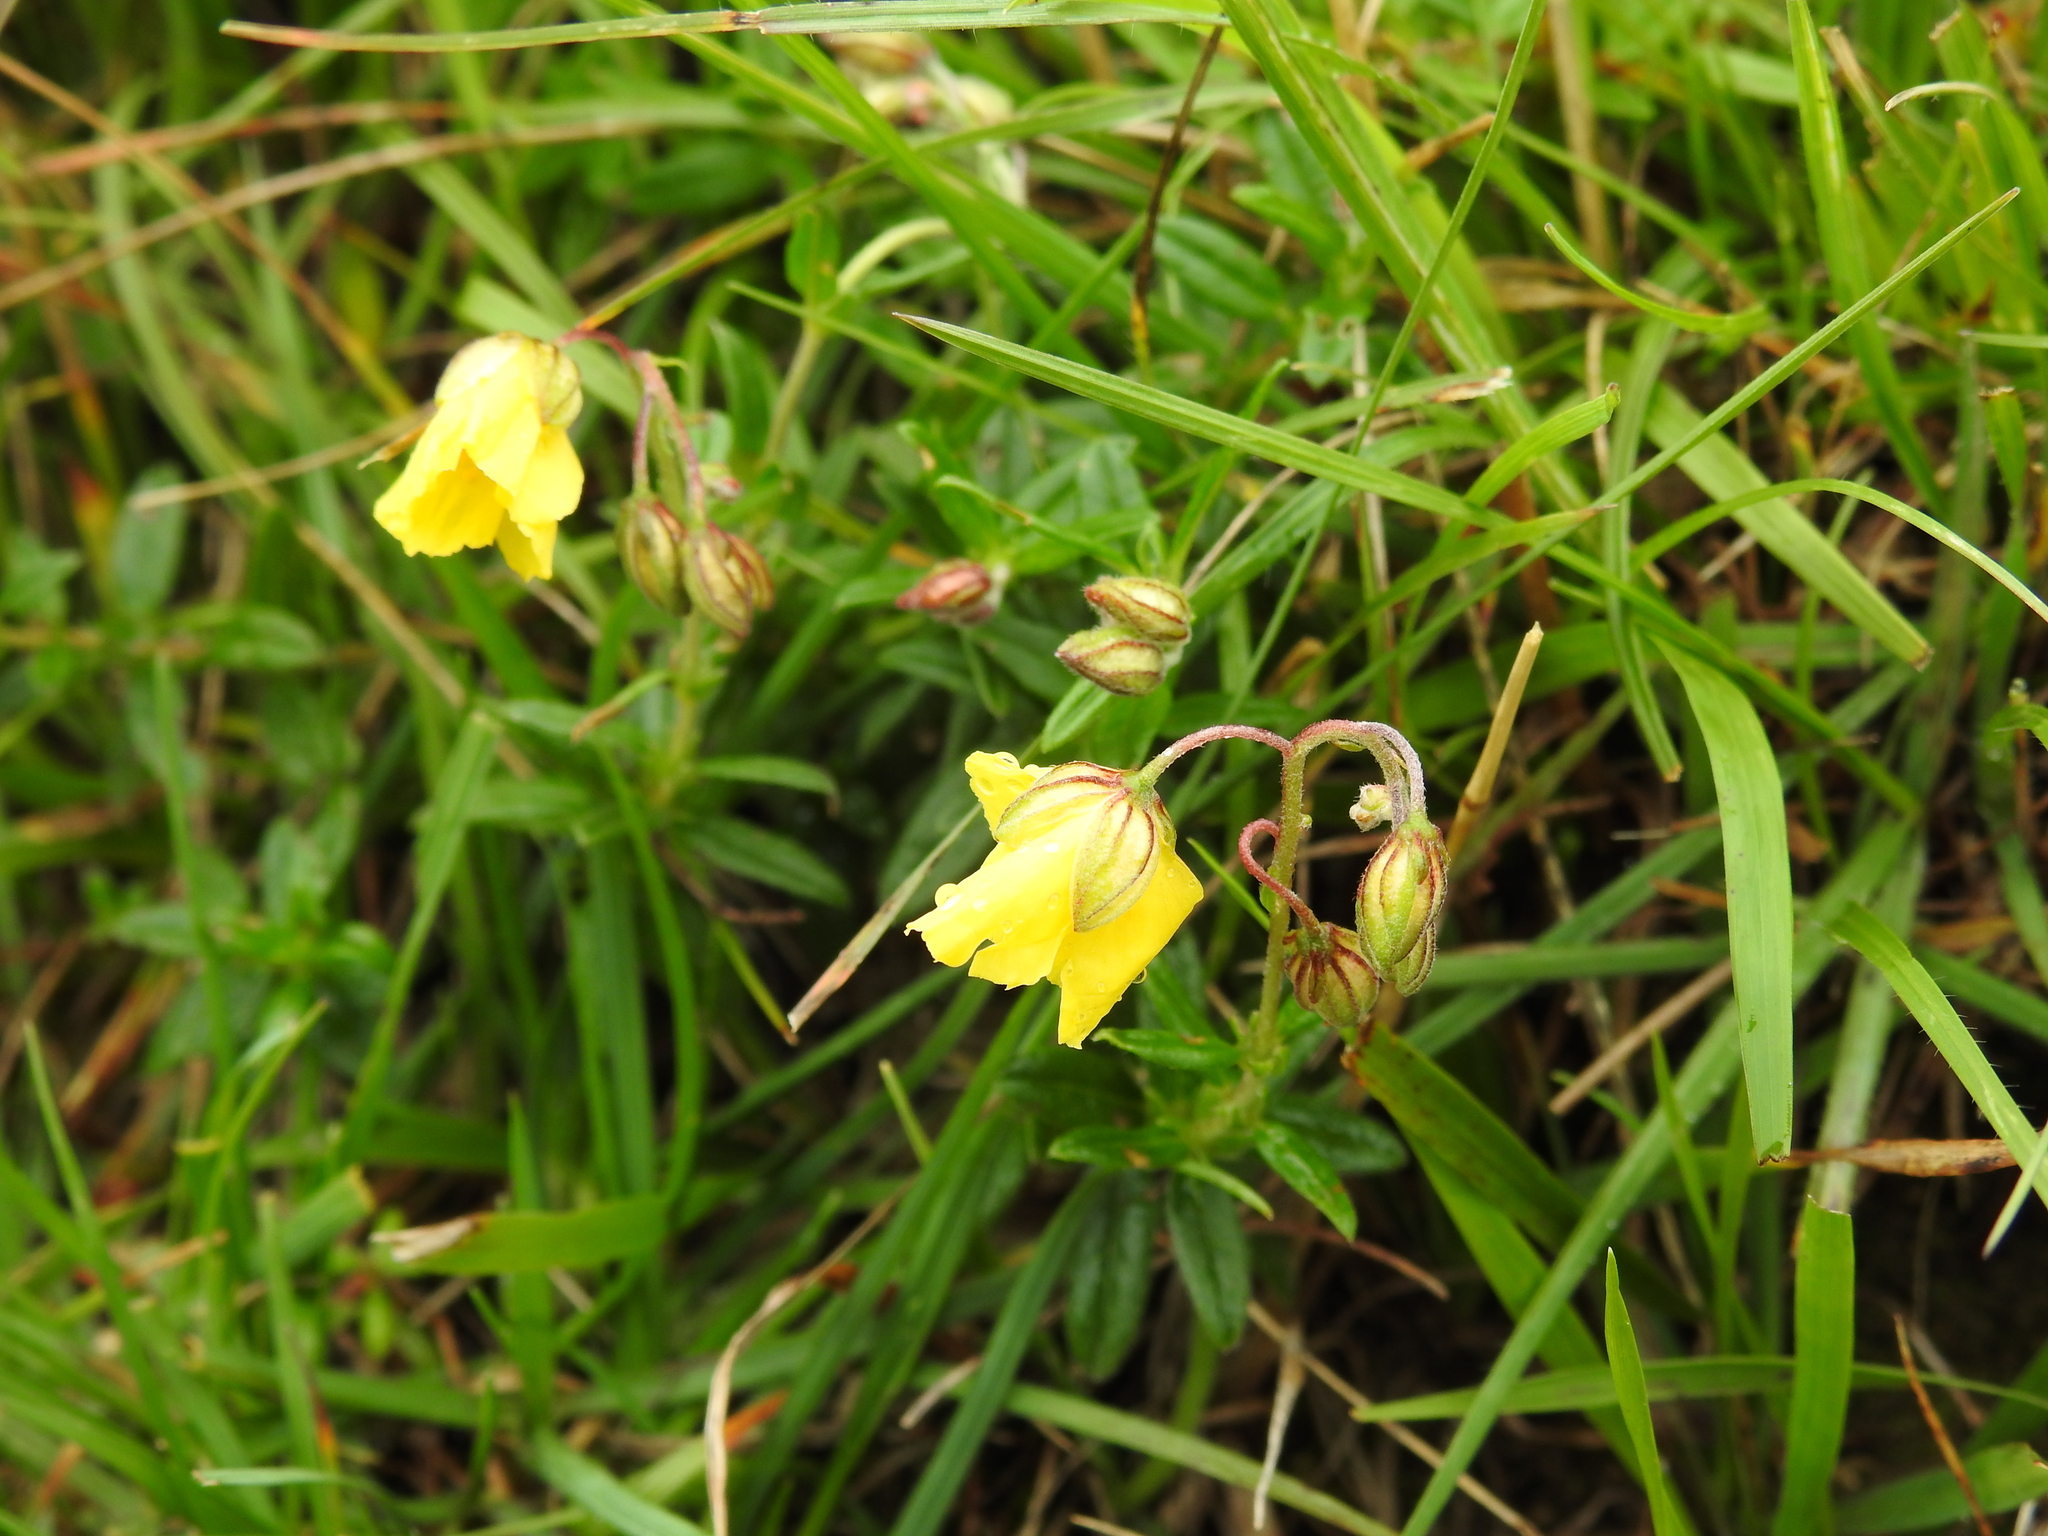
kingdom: Plantae
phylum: Tracheophyta
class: Magnoliopsida
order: Malvales
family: Cistaceae
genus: Helianthemum
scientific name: Helianthemum nummularium
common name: Common rock-rose
